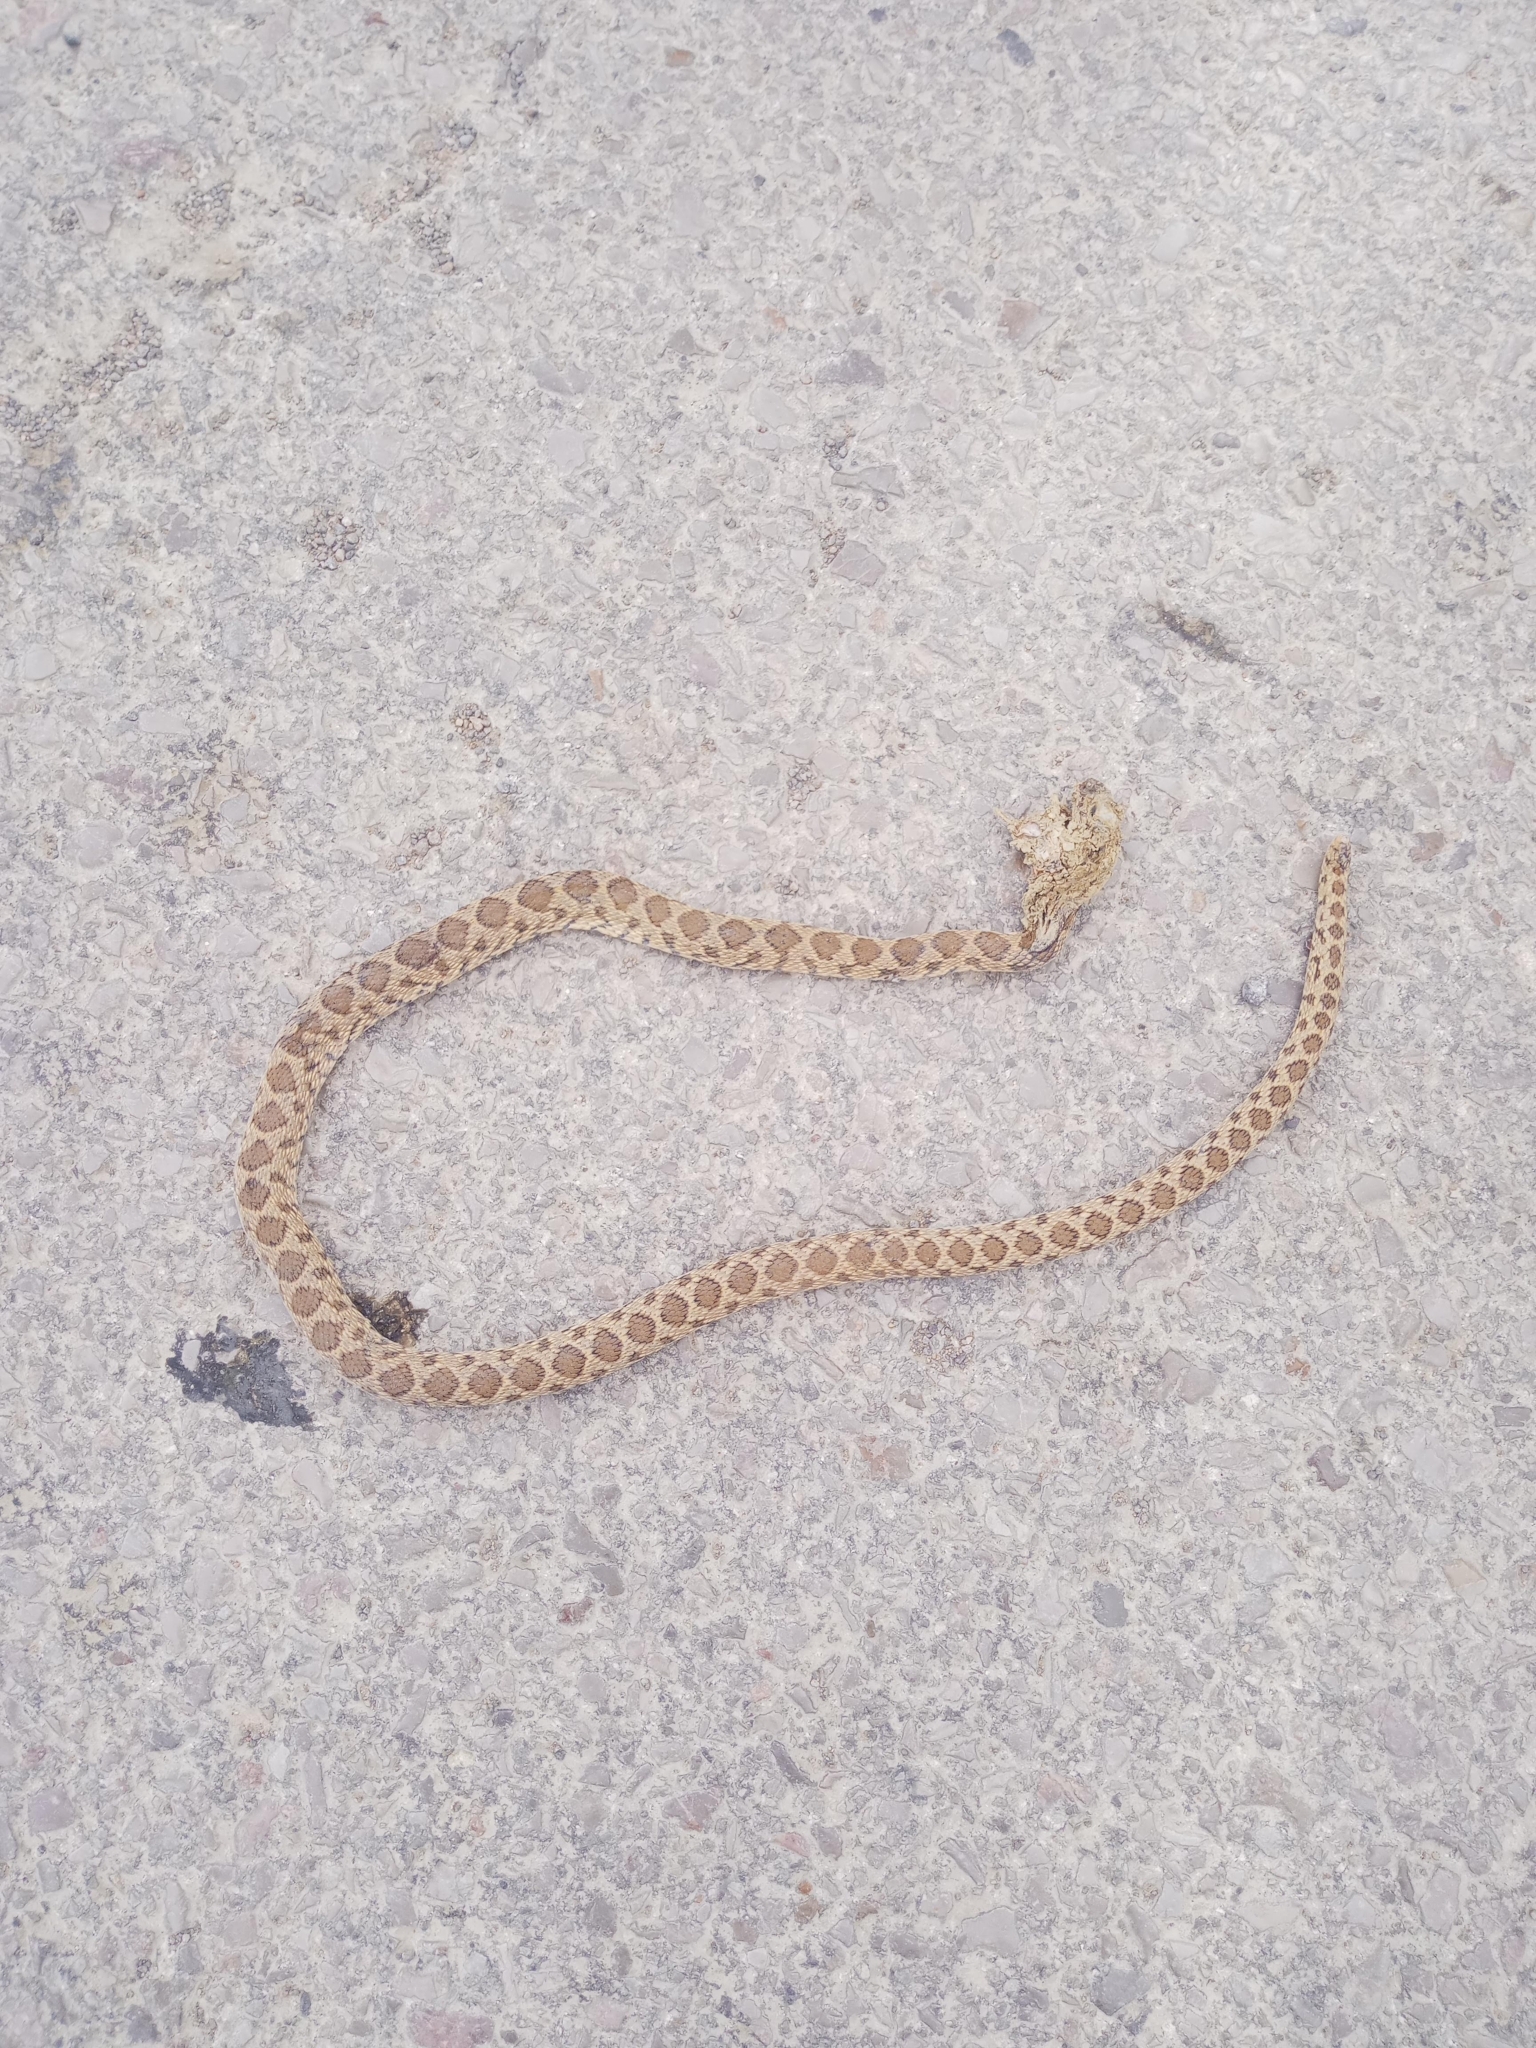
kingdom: Animalia
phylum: Chordata
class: Squamata
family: Colubridae
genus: Hemorrhois
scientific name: Hemorrhois hippocrepis
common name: Horseshoe whip snake
